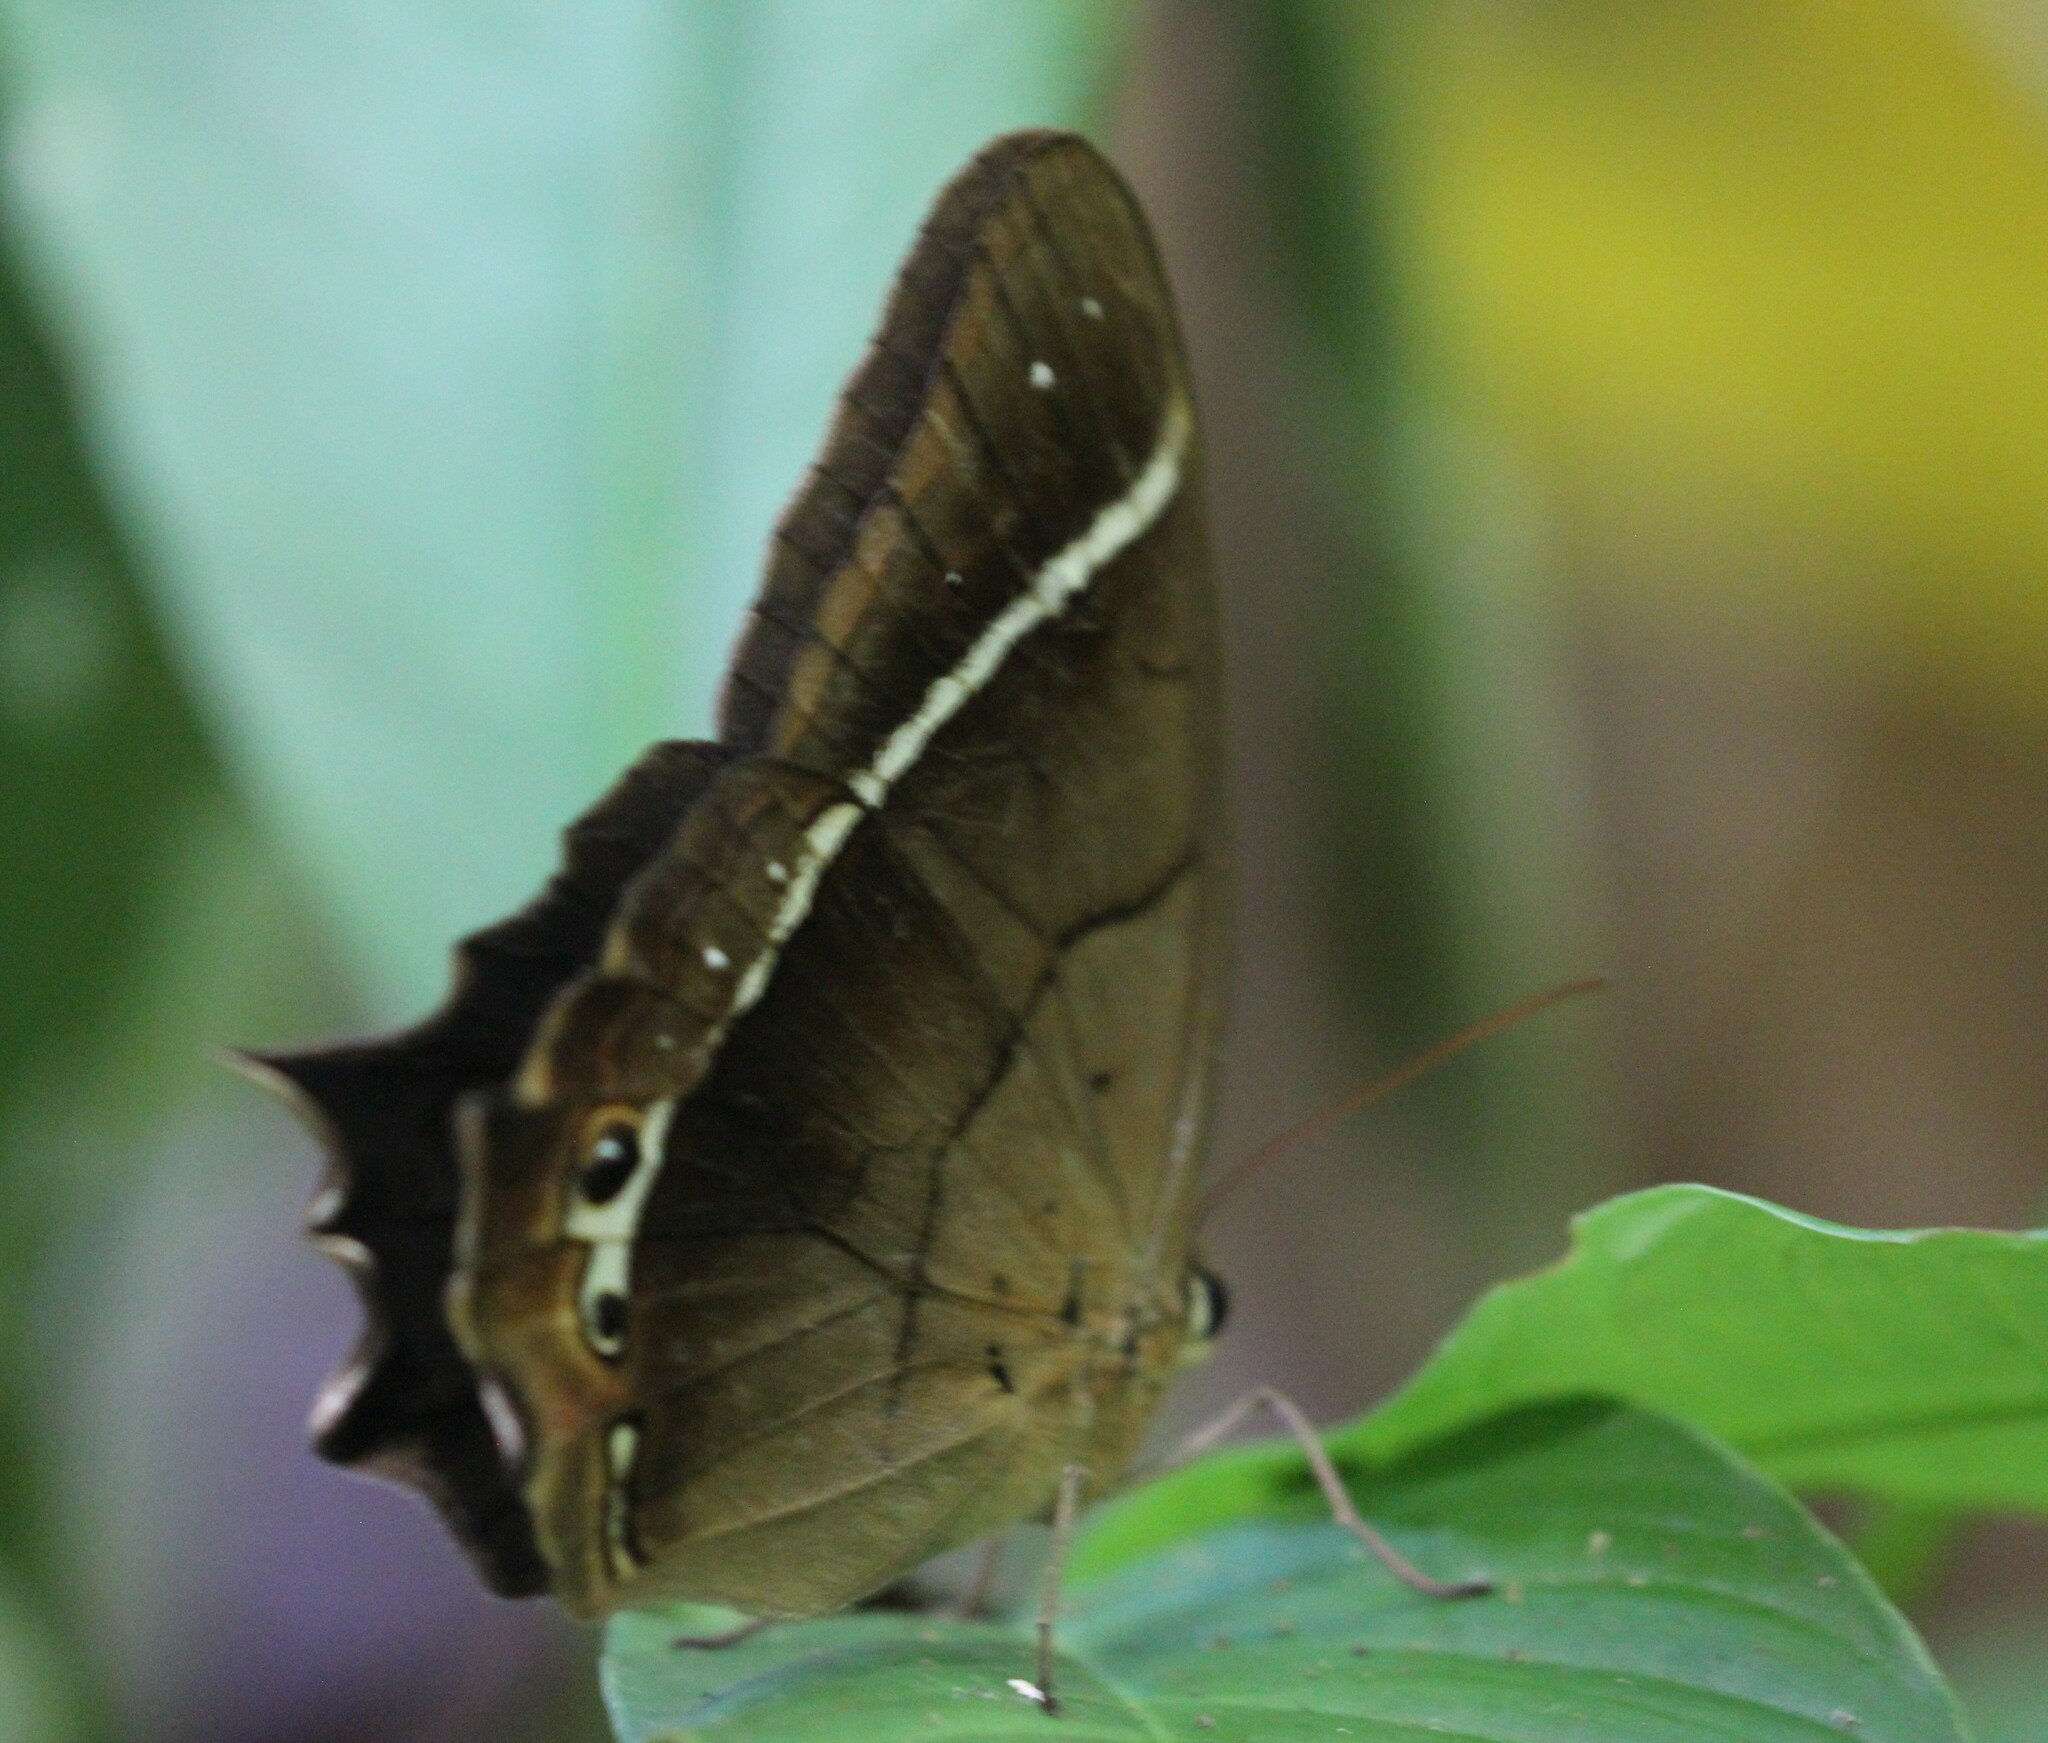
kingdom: Animalia
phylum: Arthropoda
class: Insecta
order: Lepidoptera
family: Nymphalidae
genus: Antirrhea
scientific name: Antirrhea philaretes
